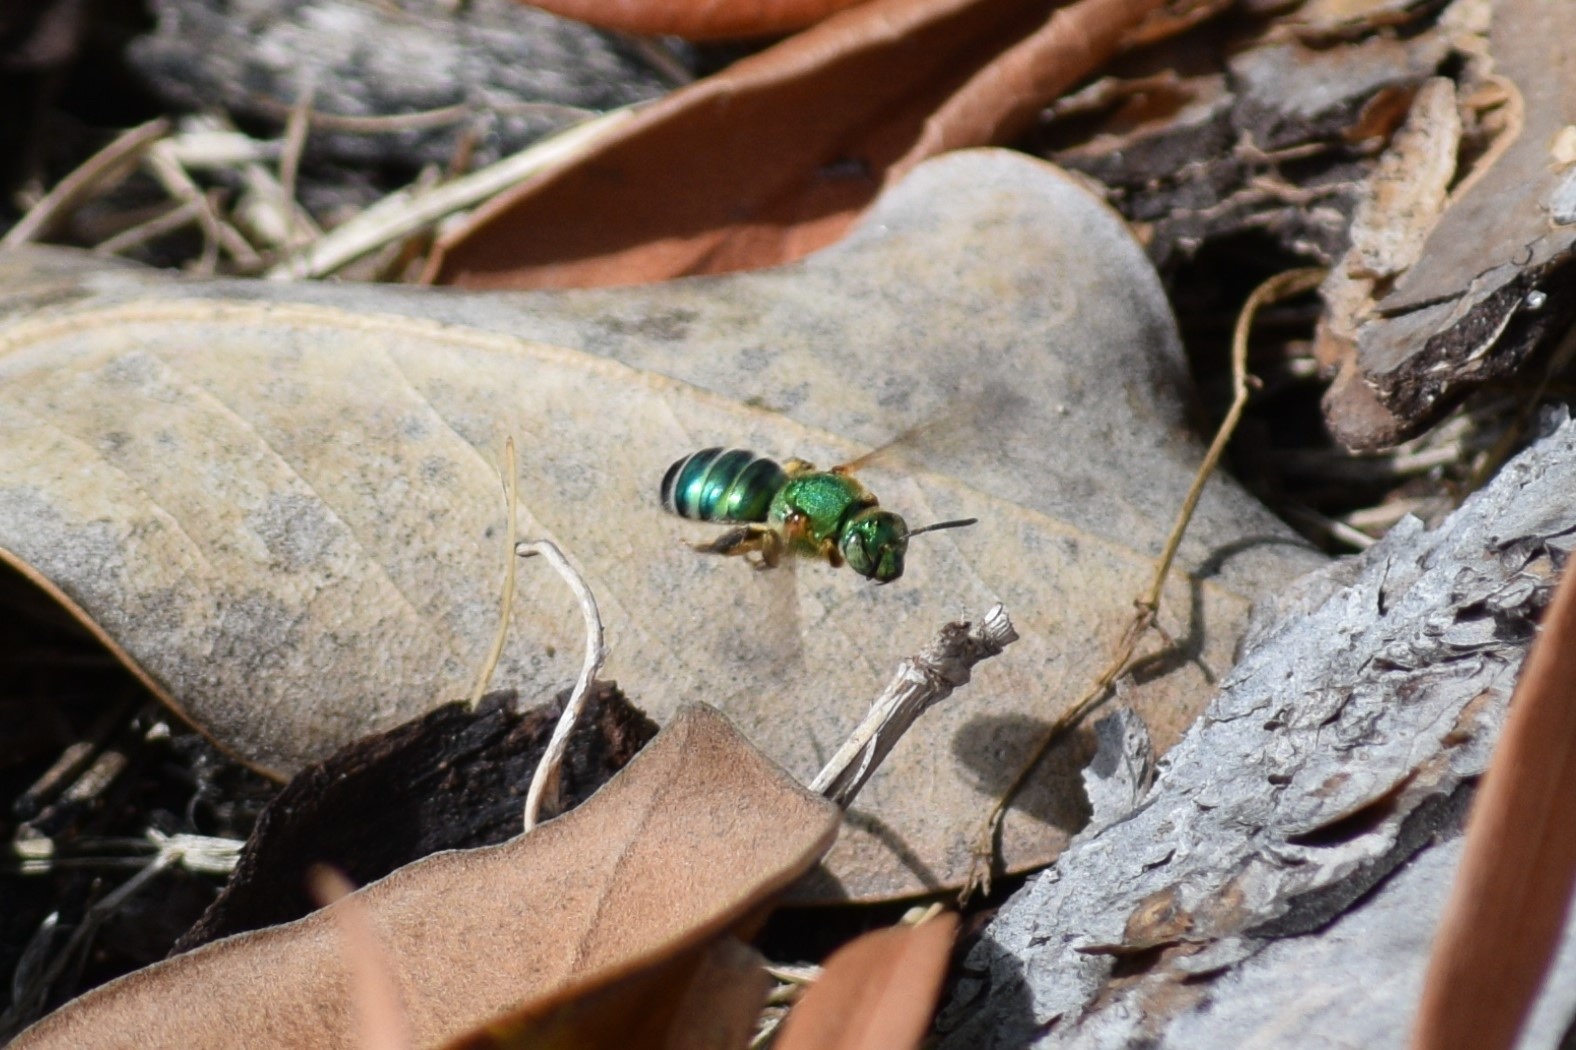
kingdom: Animalia
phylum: Arthropoda
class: Insecta
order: Hymenoptera
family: Halictidae
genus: Agapostemon
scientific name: Agapostemon splendens
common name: Brown-winged striped sweat bee
